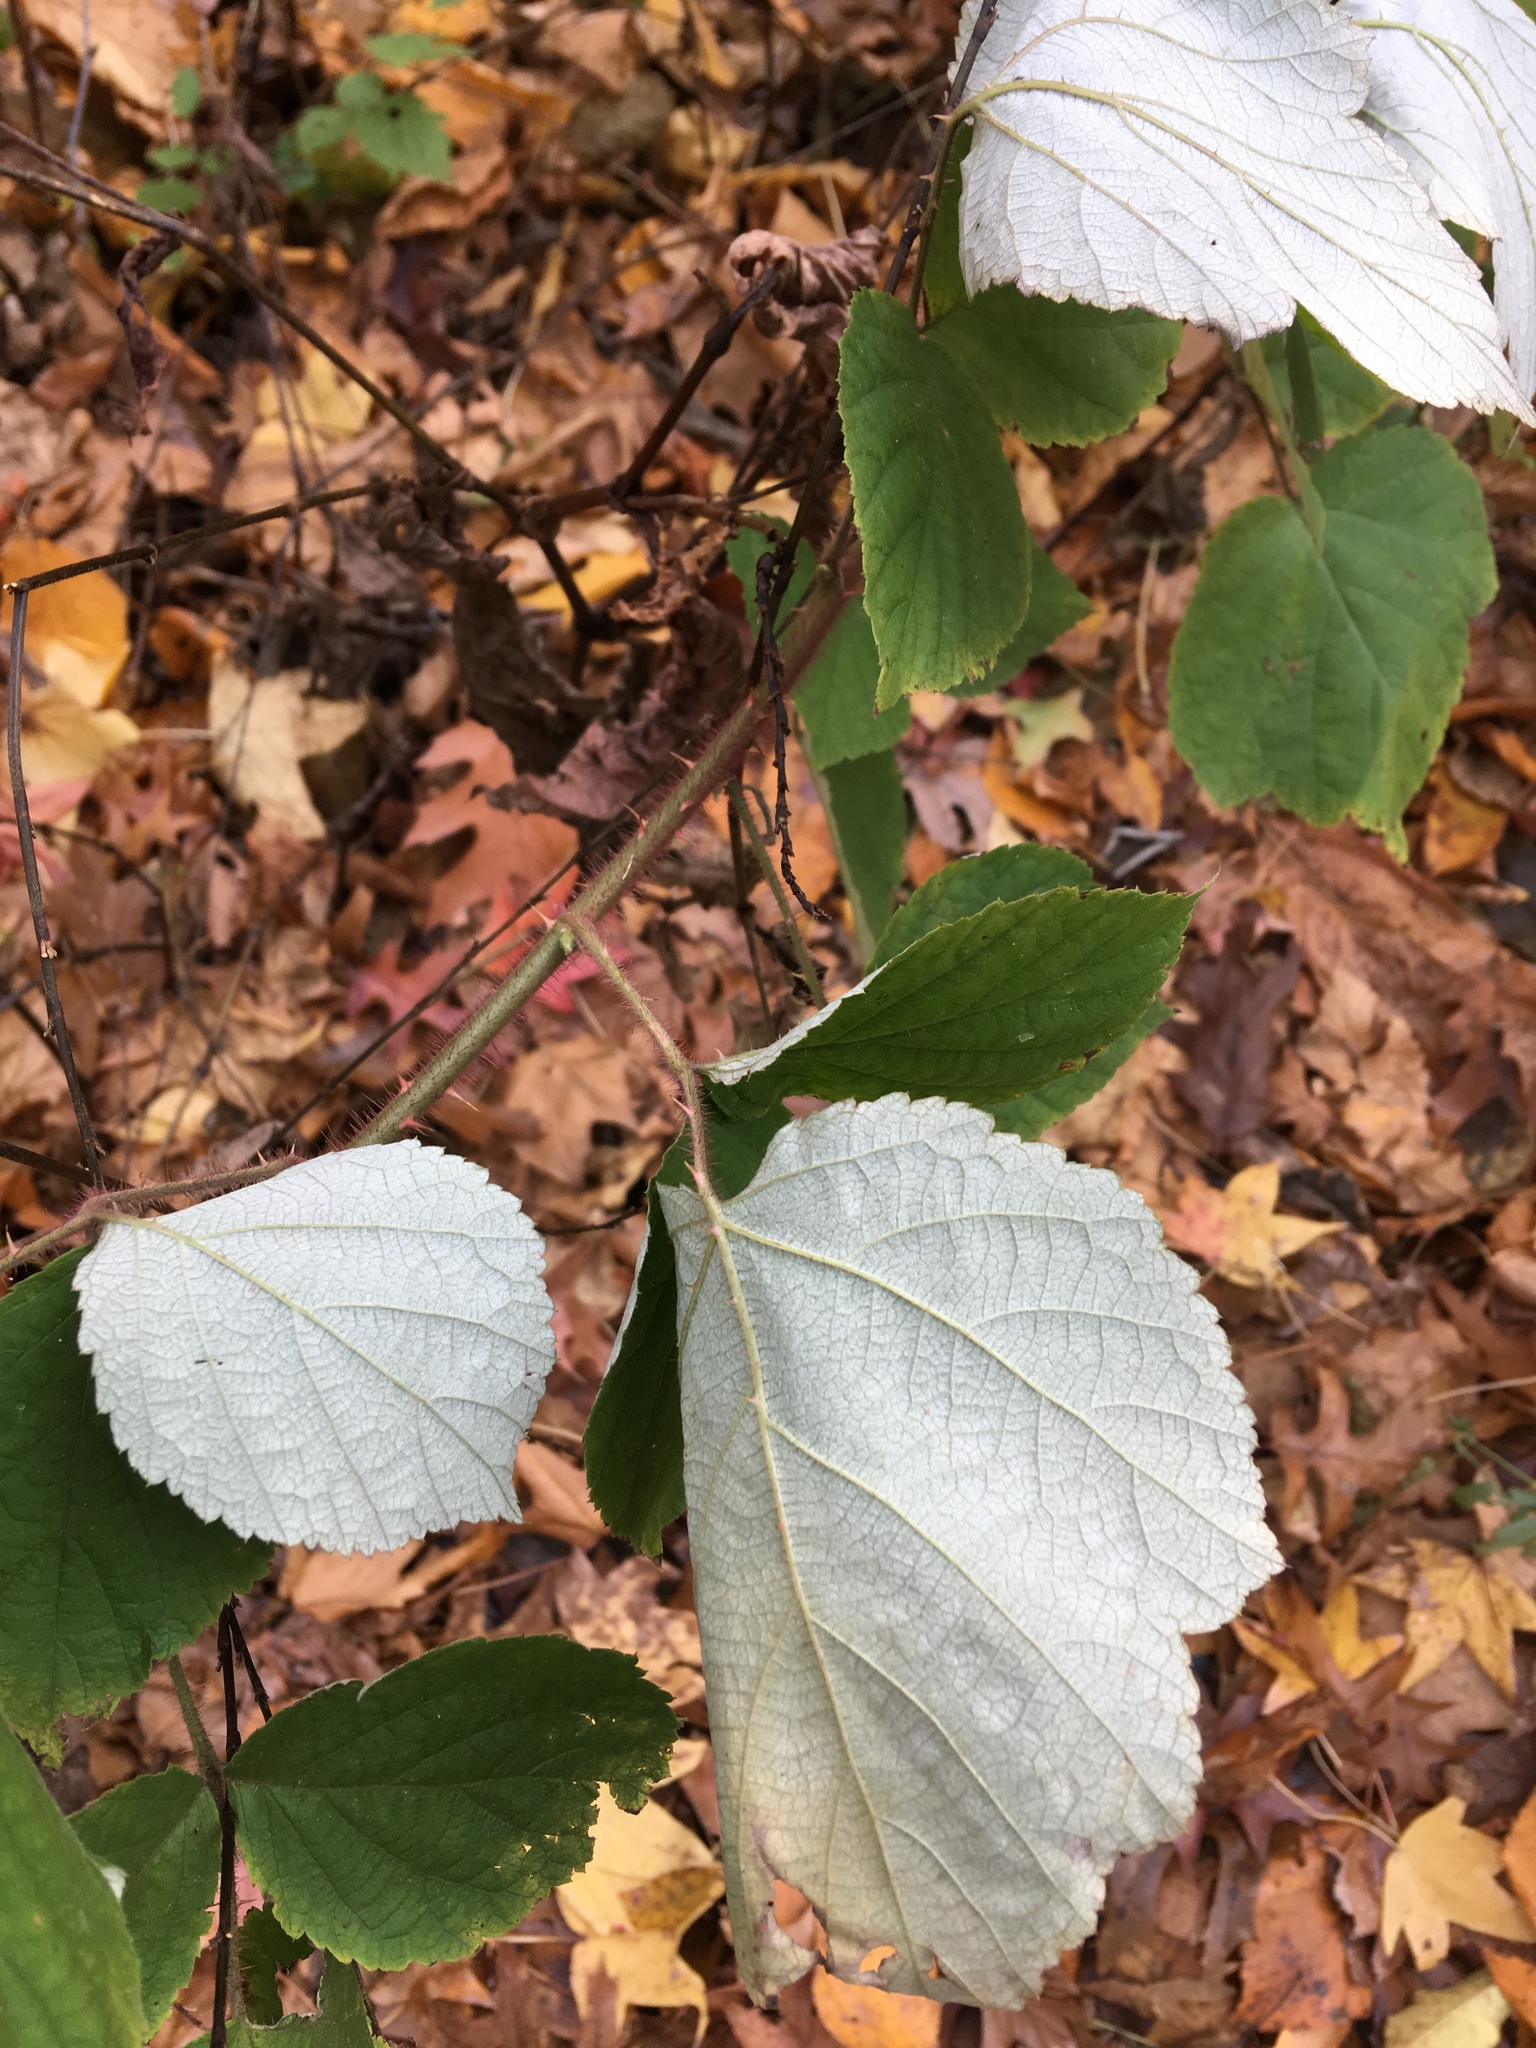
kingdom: Plantae
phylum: Tracheophyta
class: Magnoliopsida
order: Rosales
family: Rosaceae
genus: Rubus
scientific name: Rubus phoenicolasius
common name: Japanese wineberry
